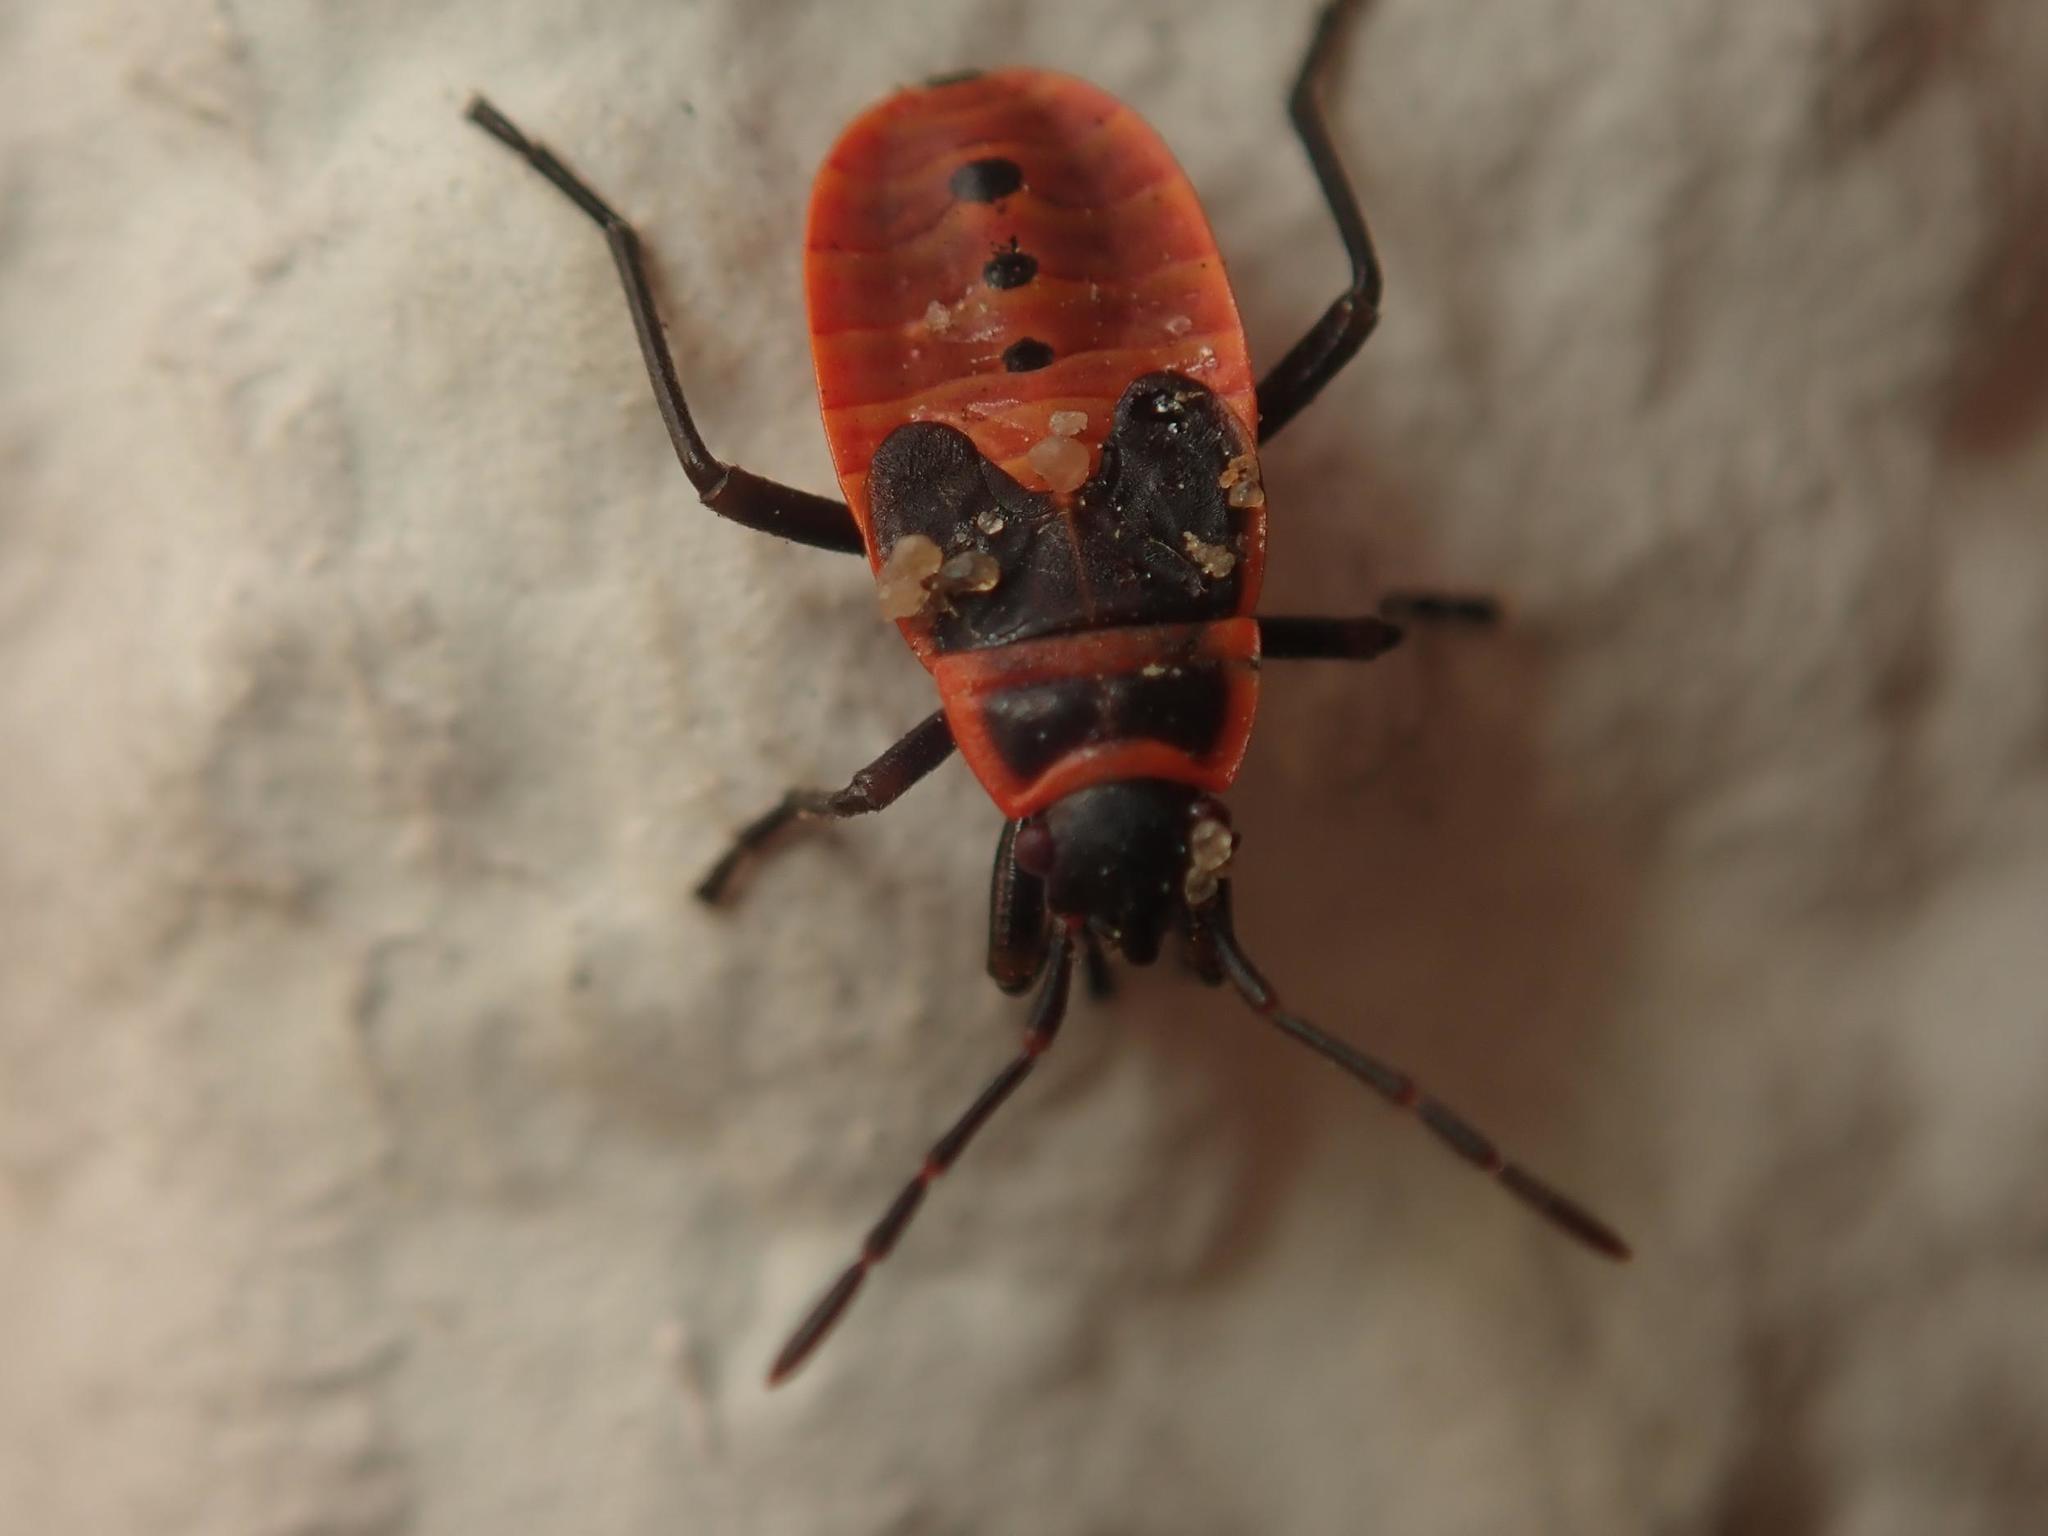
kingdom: Animalia
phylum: Arthropoda
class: Insecta
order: Hemiptera
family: Pyrrhocoridae
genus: Pyrrhocoris
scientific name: Pyrrhocoris apterus
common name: Firebug
